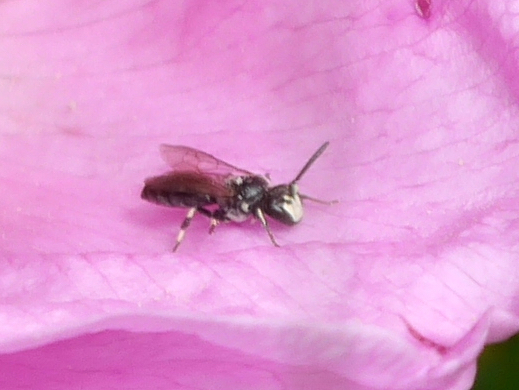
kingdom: Animalia
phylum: Arthropoda
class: Insecta
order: Hymenoptera
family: Colletidae
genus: Hylaeus
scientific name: Hylaeus annulatus
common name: Annulate masked bee
